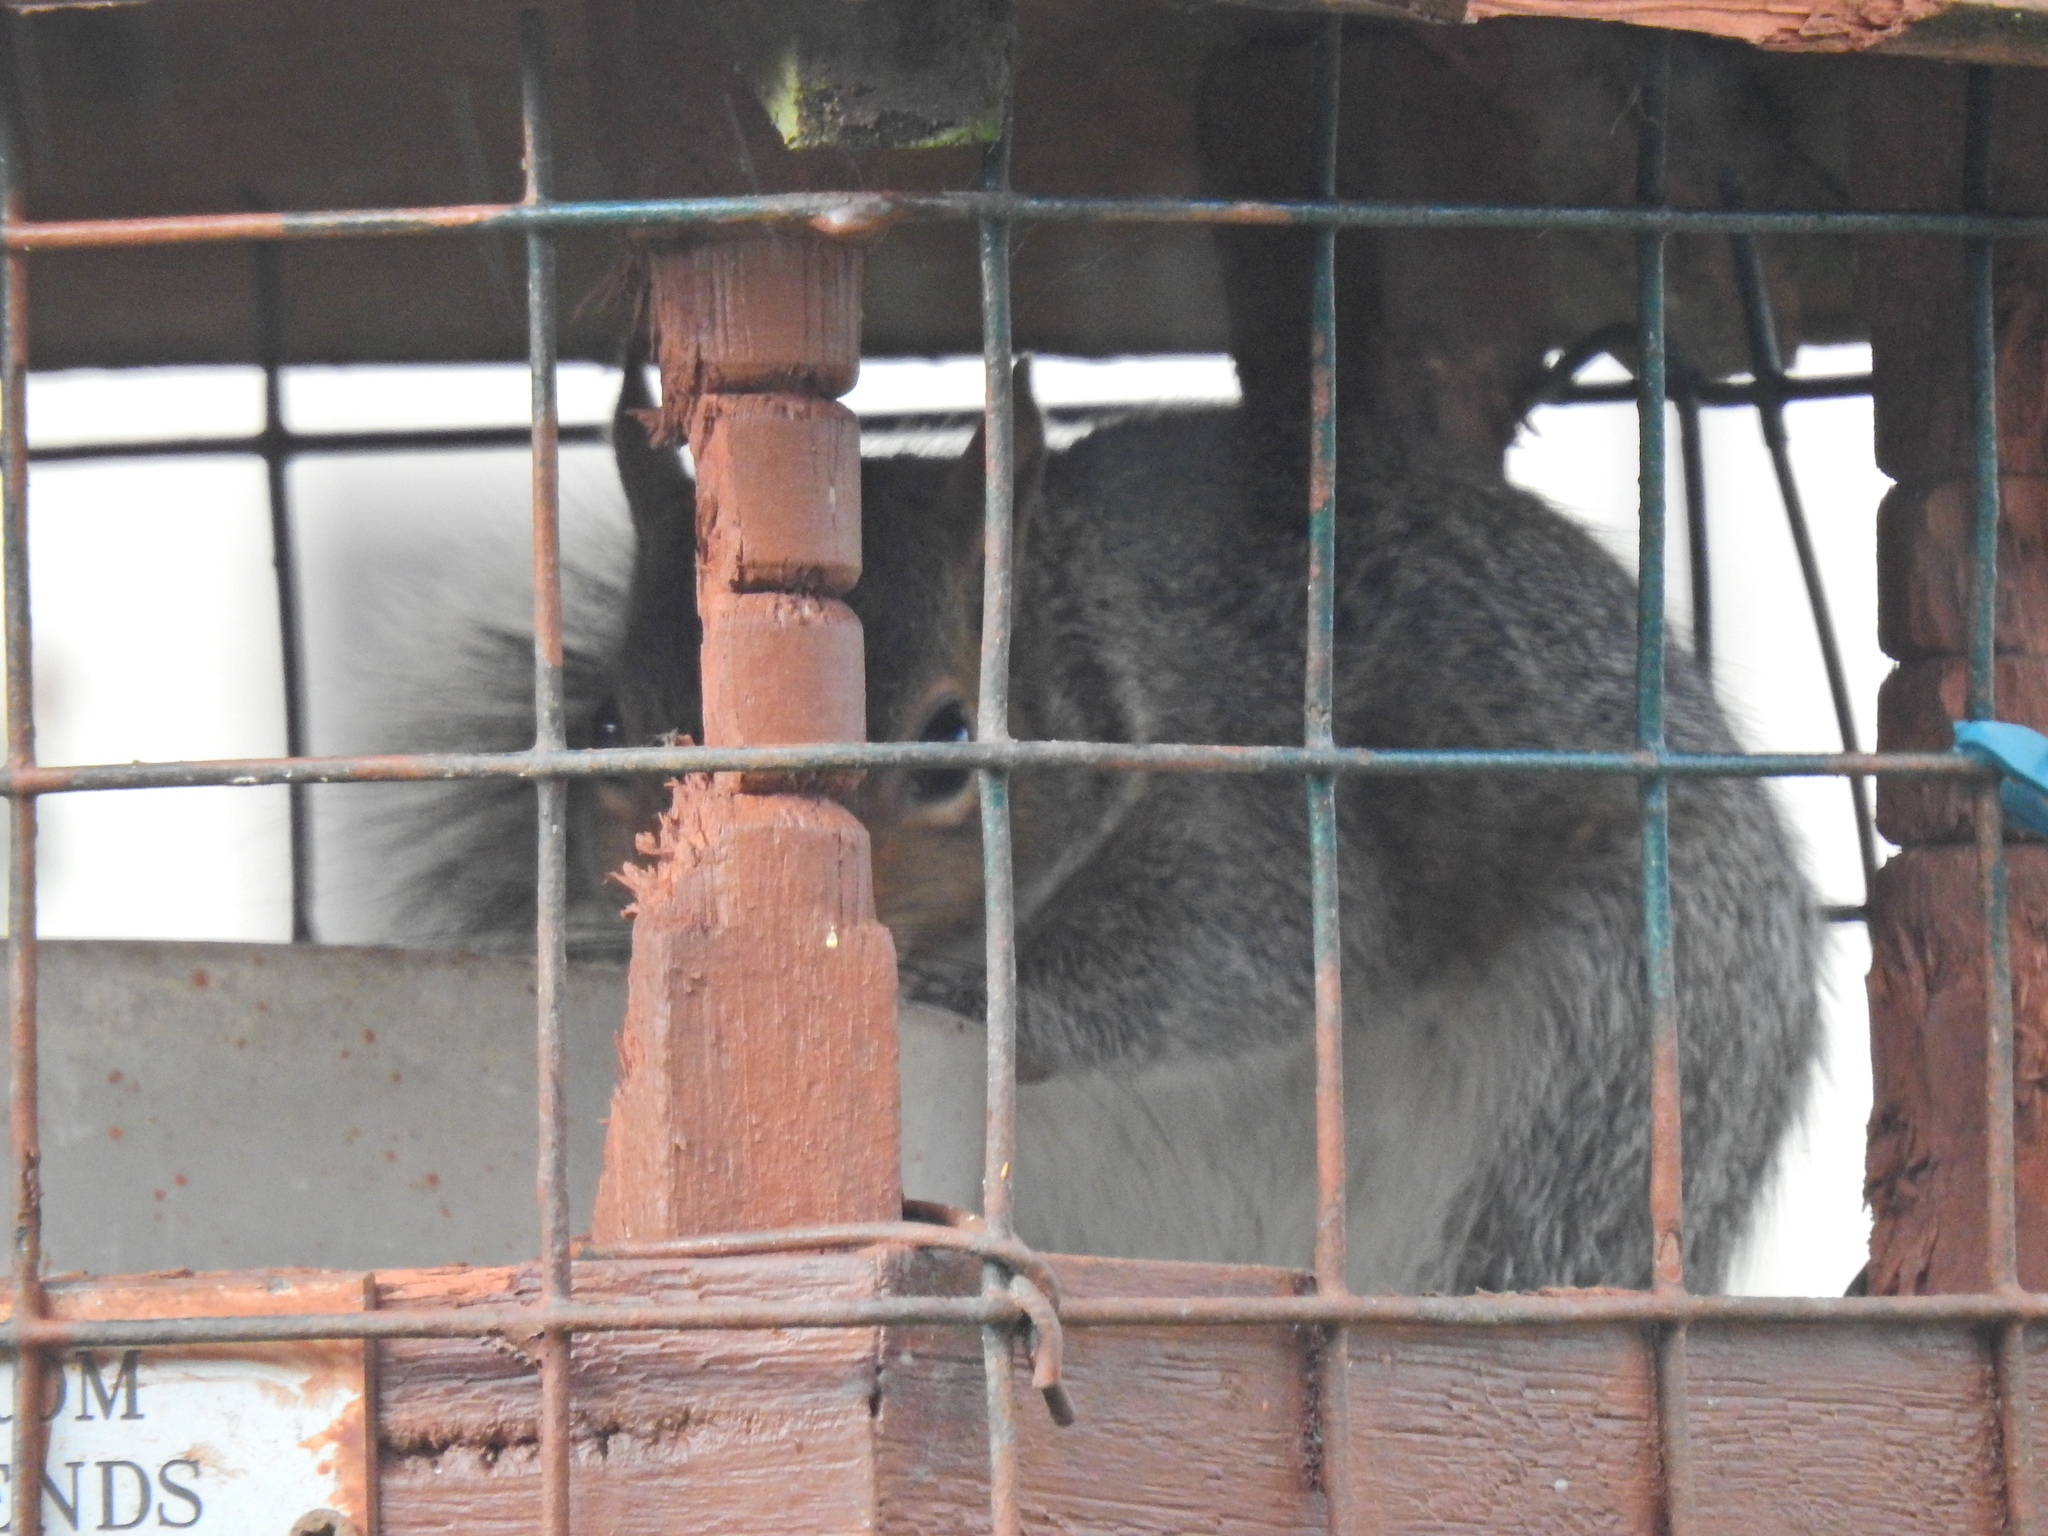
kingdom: Animalia
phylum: Chordata
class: Mammalia
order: Rodentia
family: Sciuridae
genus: Sciurus
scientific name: Sciurus carolinensis
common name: Eastern gray squirrel
